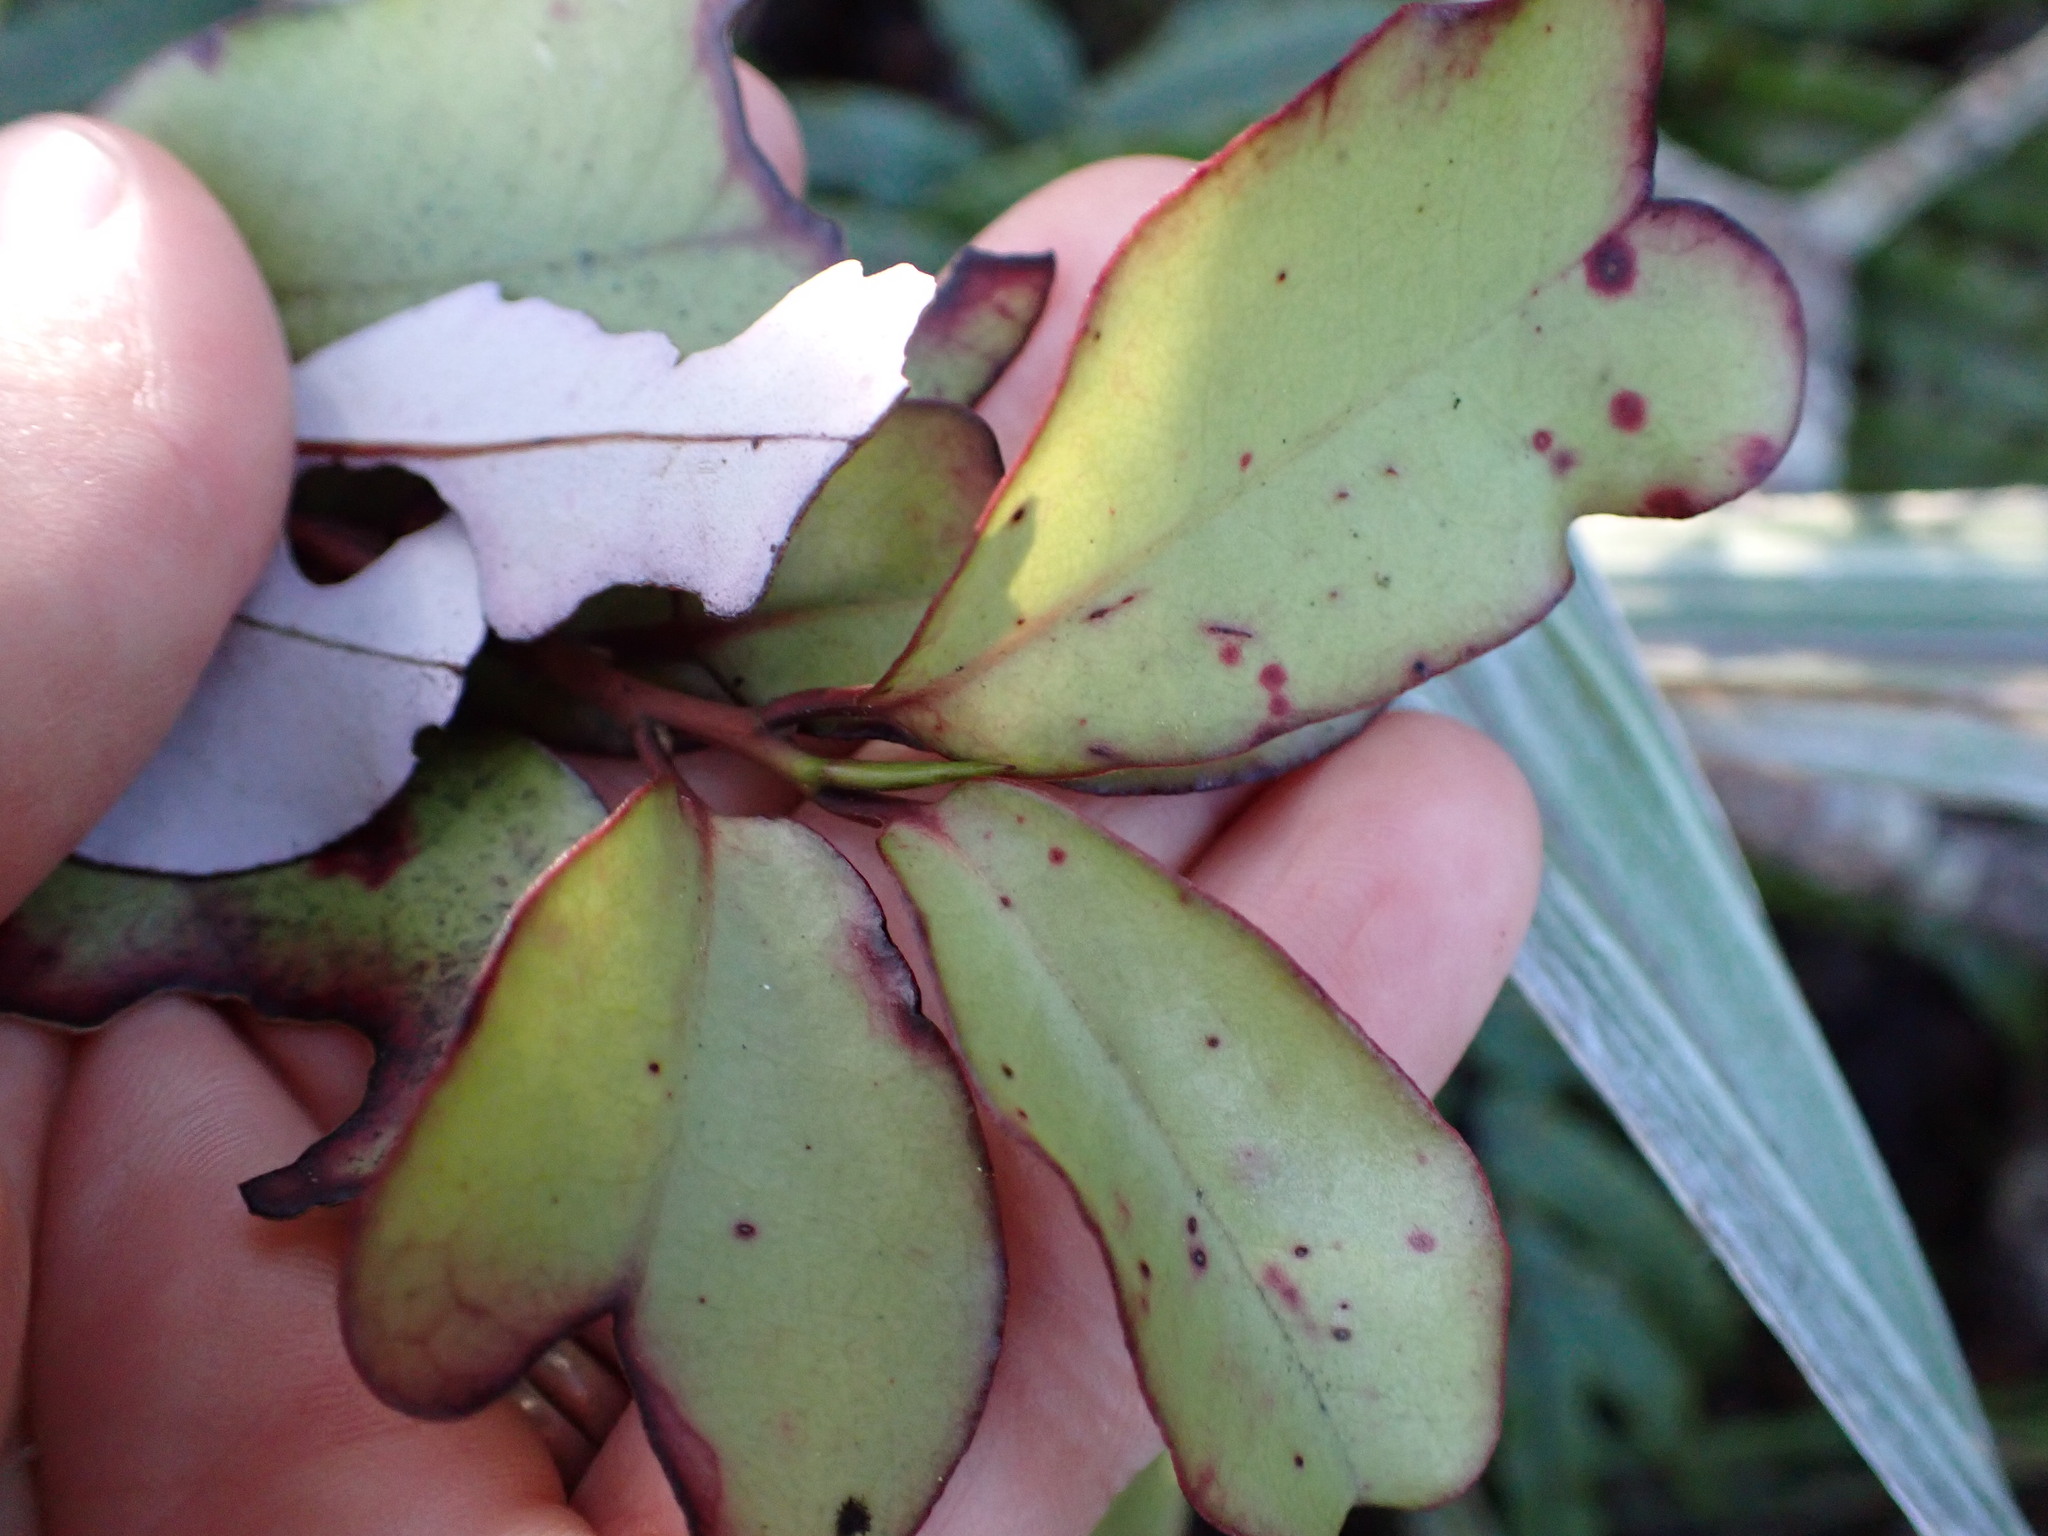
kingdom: Plantae
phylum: Tracheophyta
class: Magnoliopsida
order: Canellales
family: Winteraceae
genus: Pseudowintera
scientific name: Pseudowintera colorata
